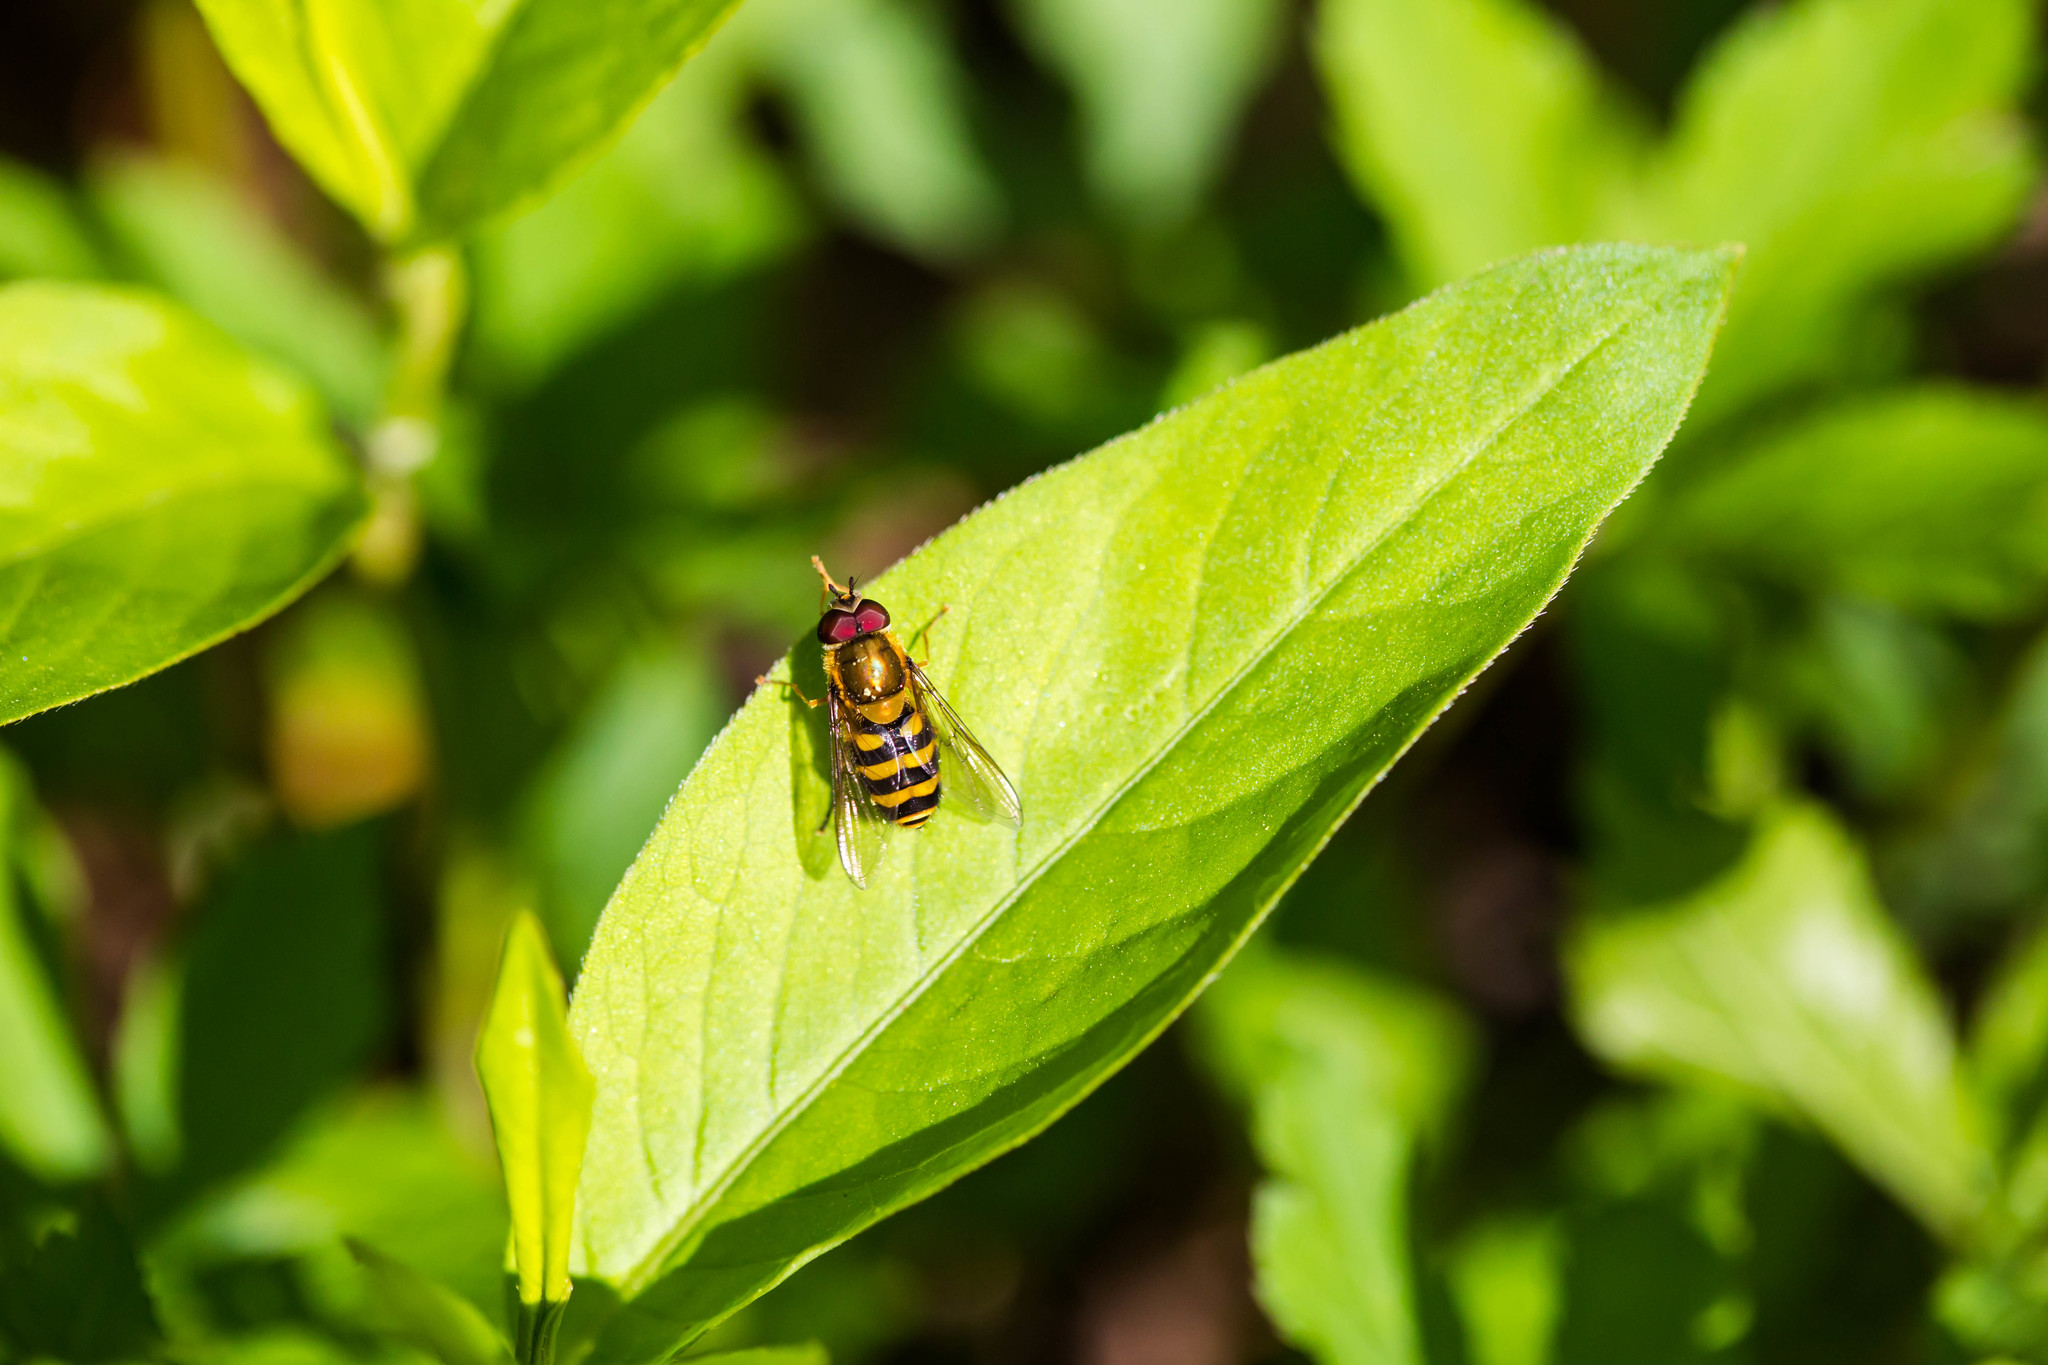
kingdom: Animalia
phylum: Arthropoda
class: Insecta
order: Diptera
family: Syrphidae
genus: Syrphus
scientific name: Syrphus
